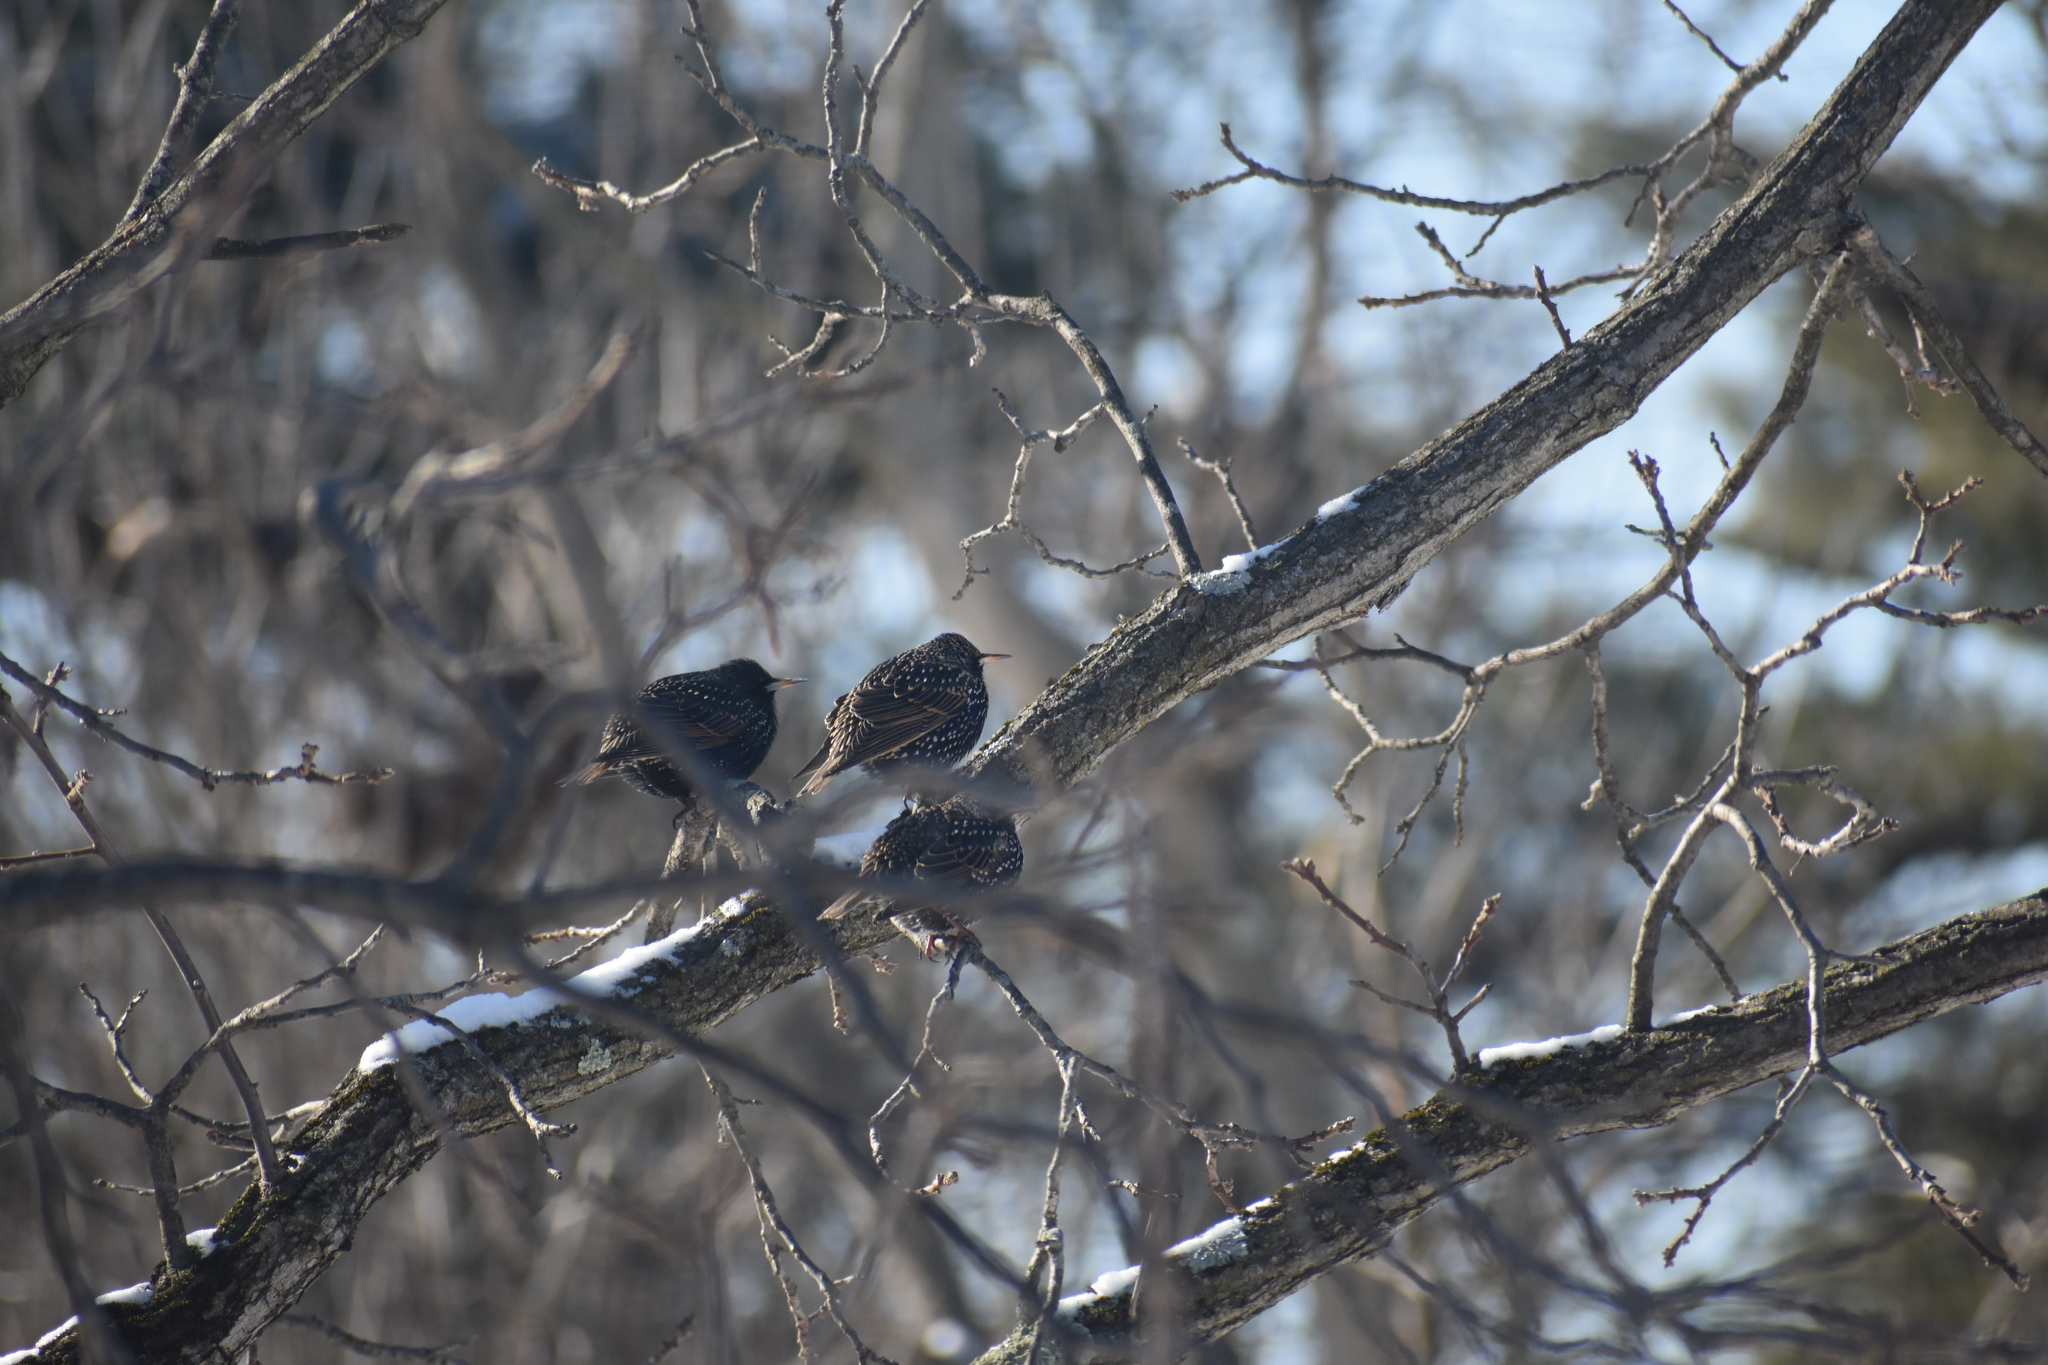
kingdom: Animalia
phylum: Chordata
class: Aves
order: Passeriformes
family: Sturnidae
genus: Sturnus
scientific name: Sturnus vulgaris
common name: Common starling
